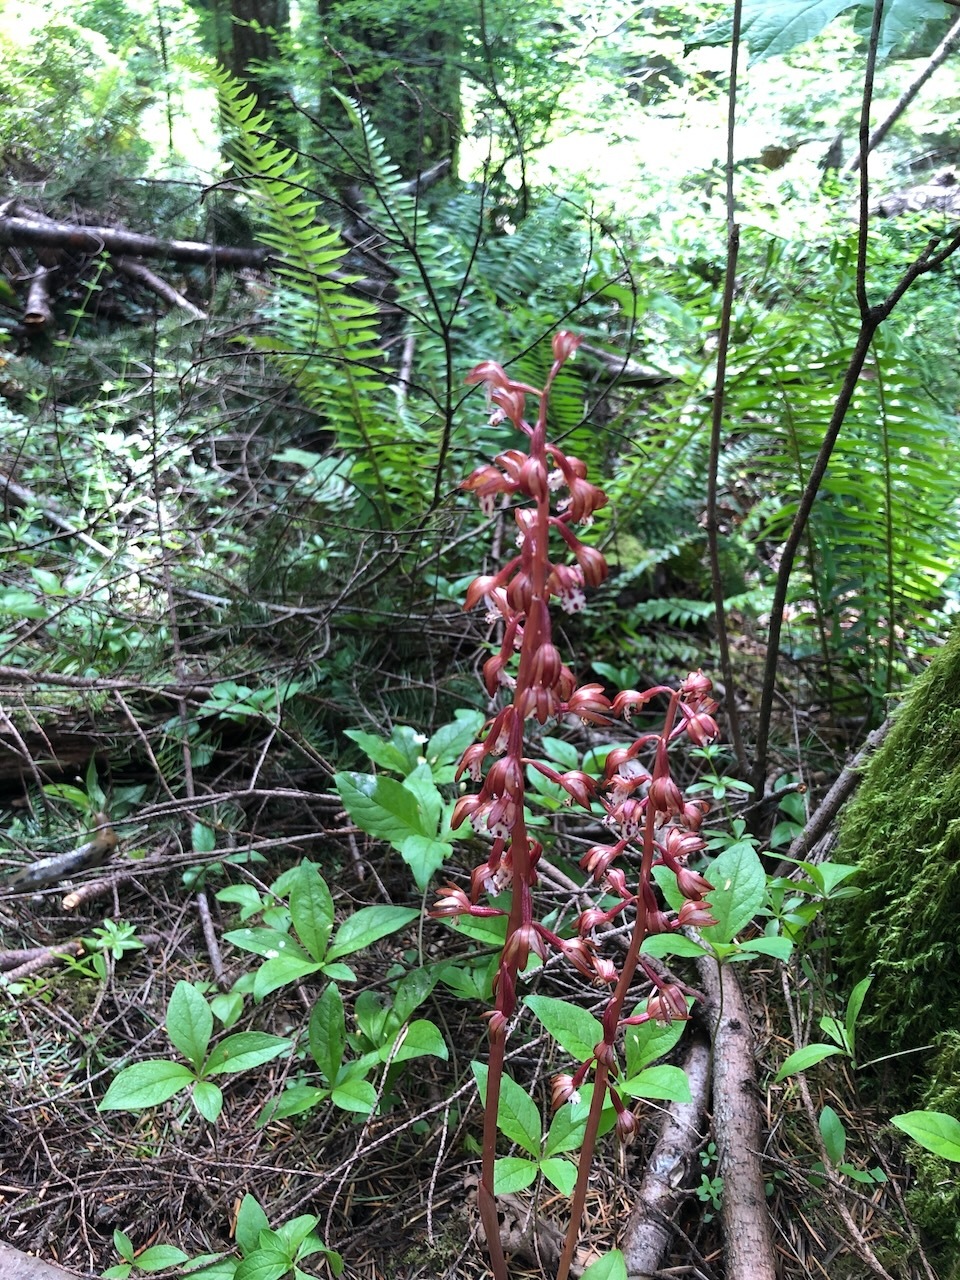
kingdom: Plantae
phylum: Tracheophyta
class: Liliopsida
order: Asparagales
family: Orchidaceae
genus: Corallorhiza
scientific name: Corallorhiza maculata
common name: Spotted coralroot
